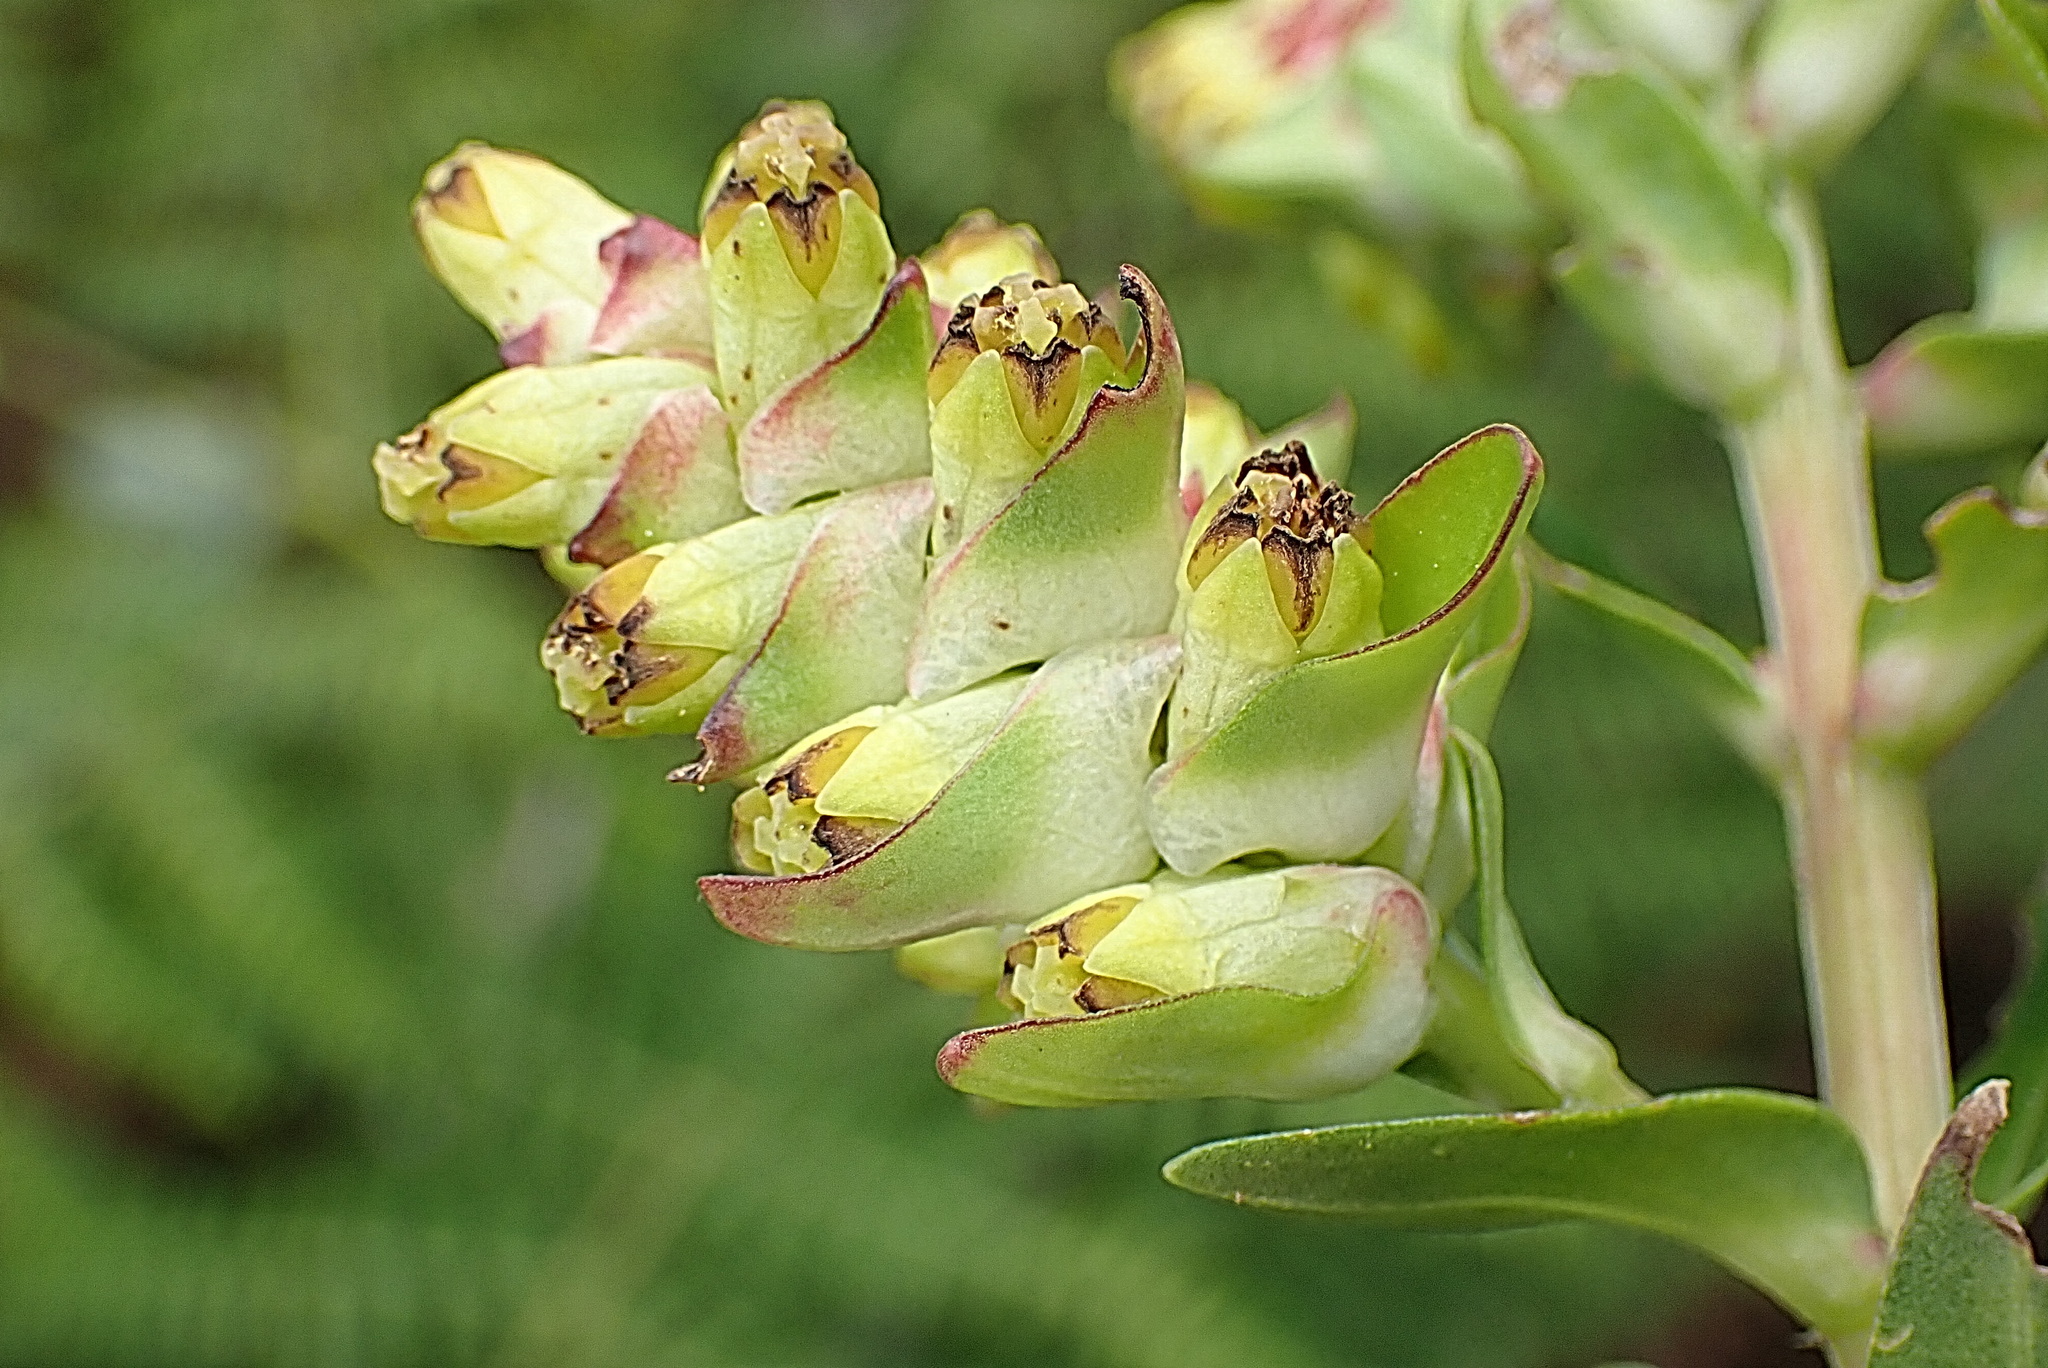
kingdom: Plantae
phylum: Tracheophyta
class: Magnoliopsida
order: Myrtales
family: Penaeaceae
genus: Penaea
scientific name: Penaea cneorum
